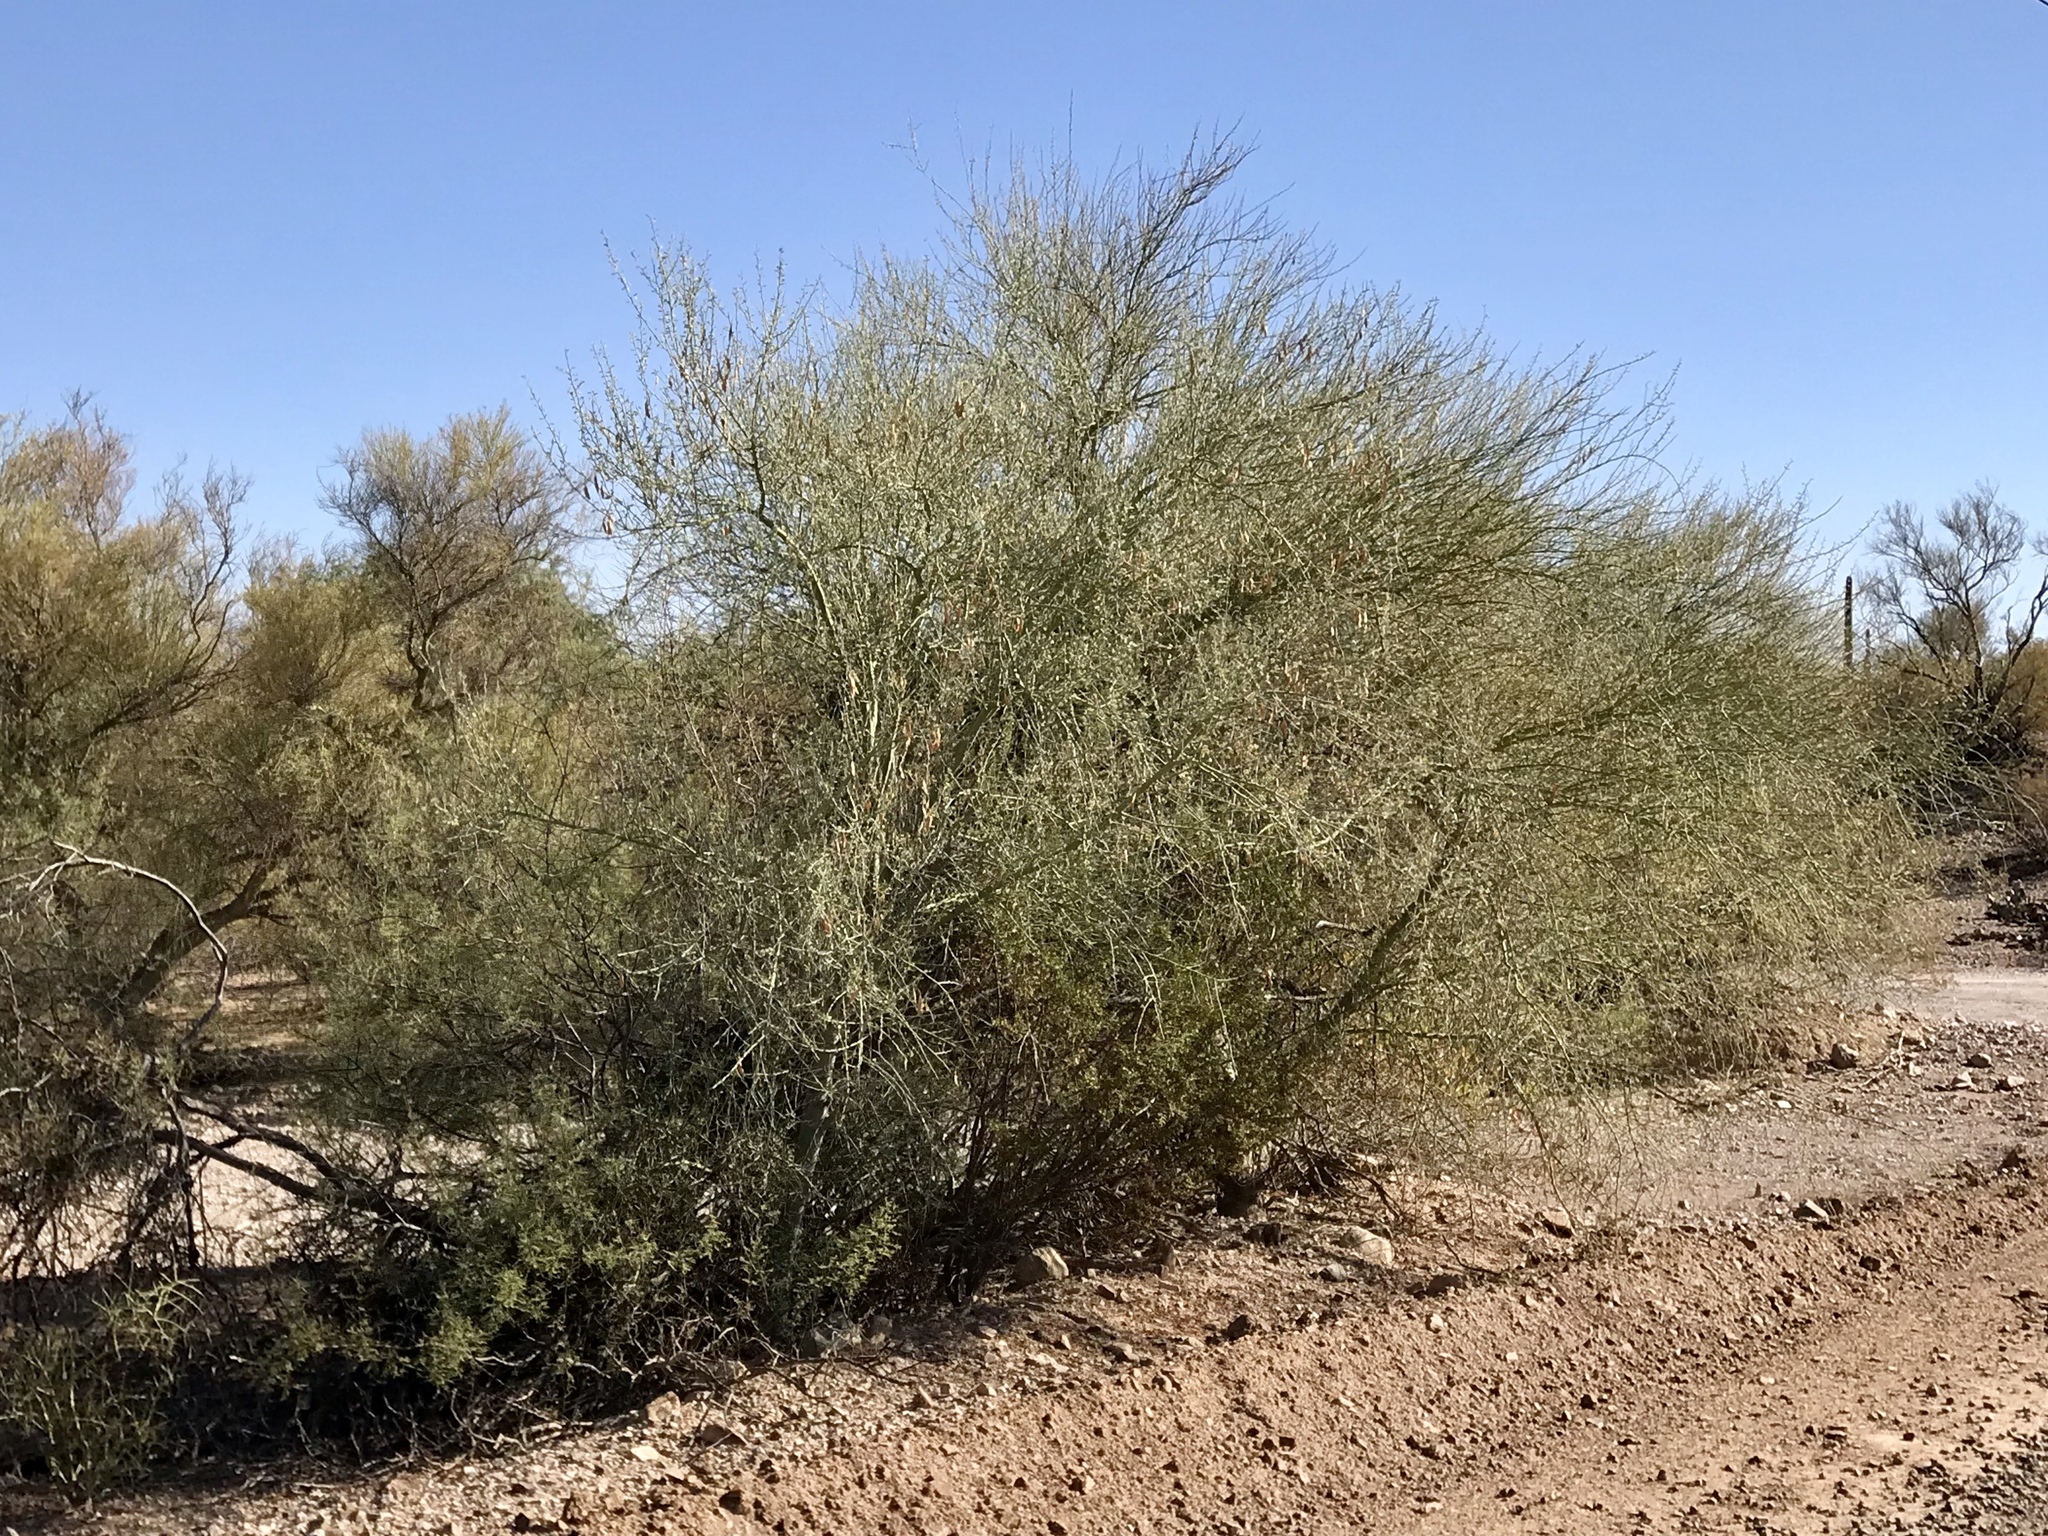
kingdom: Plantae
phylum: Tracheophyta
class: Magnoliopsida
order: Rosales
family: Rhamnaceae
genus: Sarcomphalus
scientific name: Sarcomphalus obtusifolius
